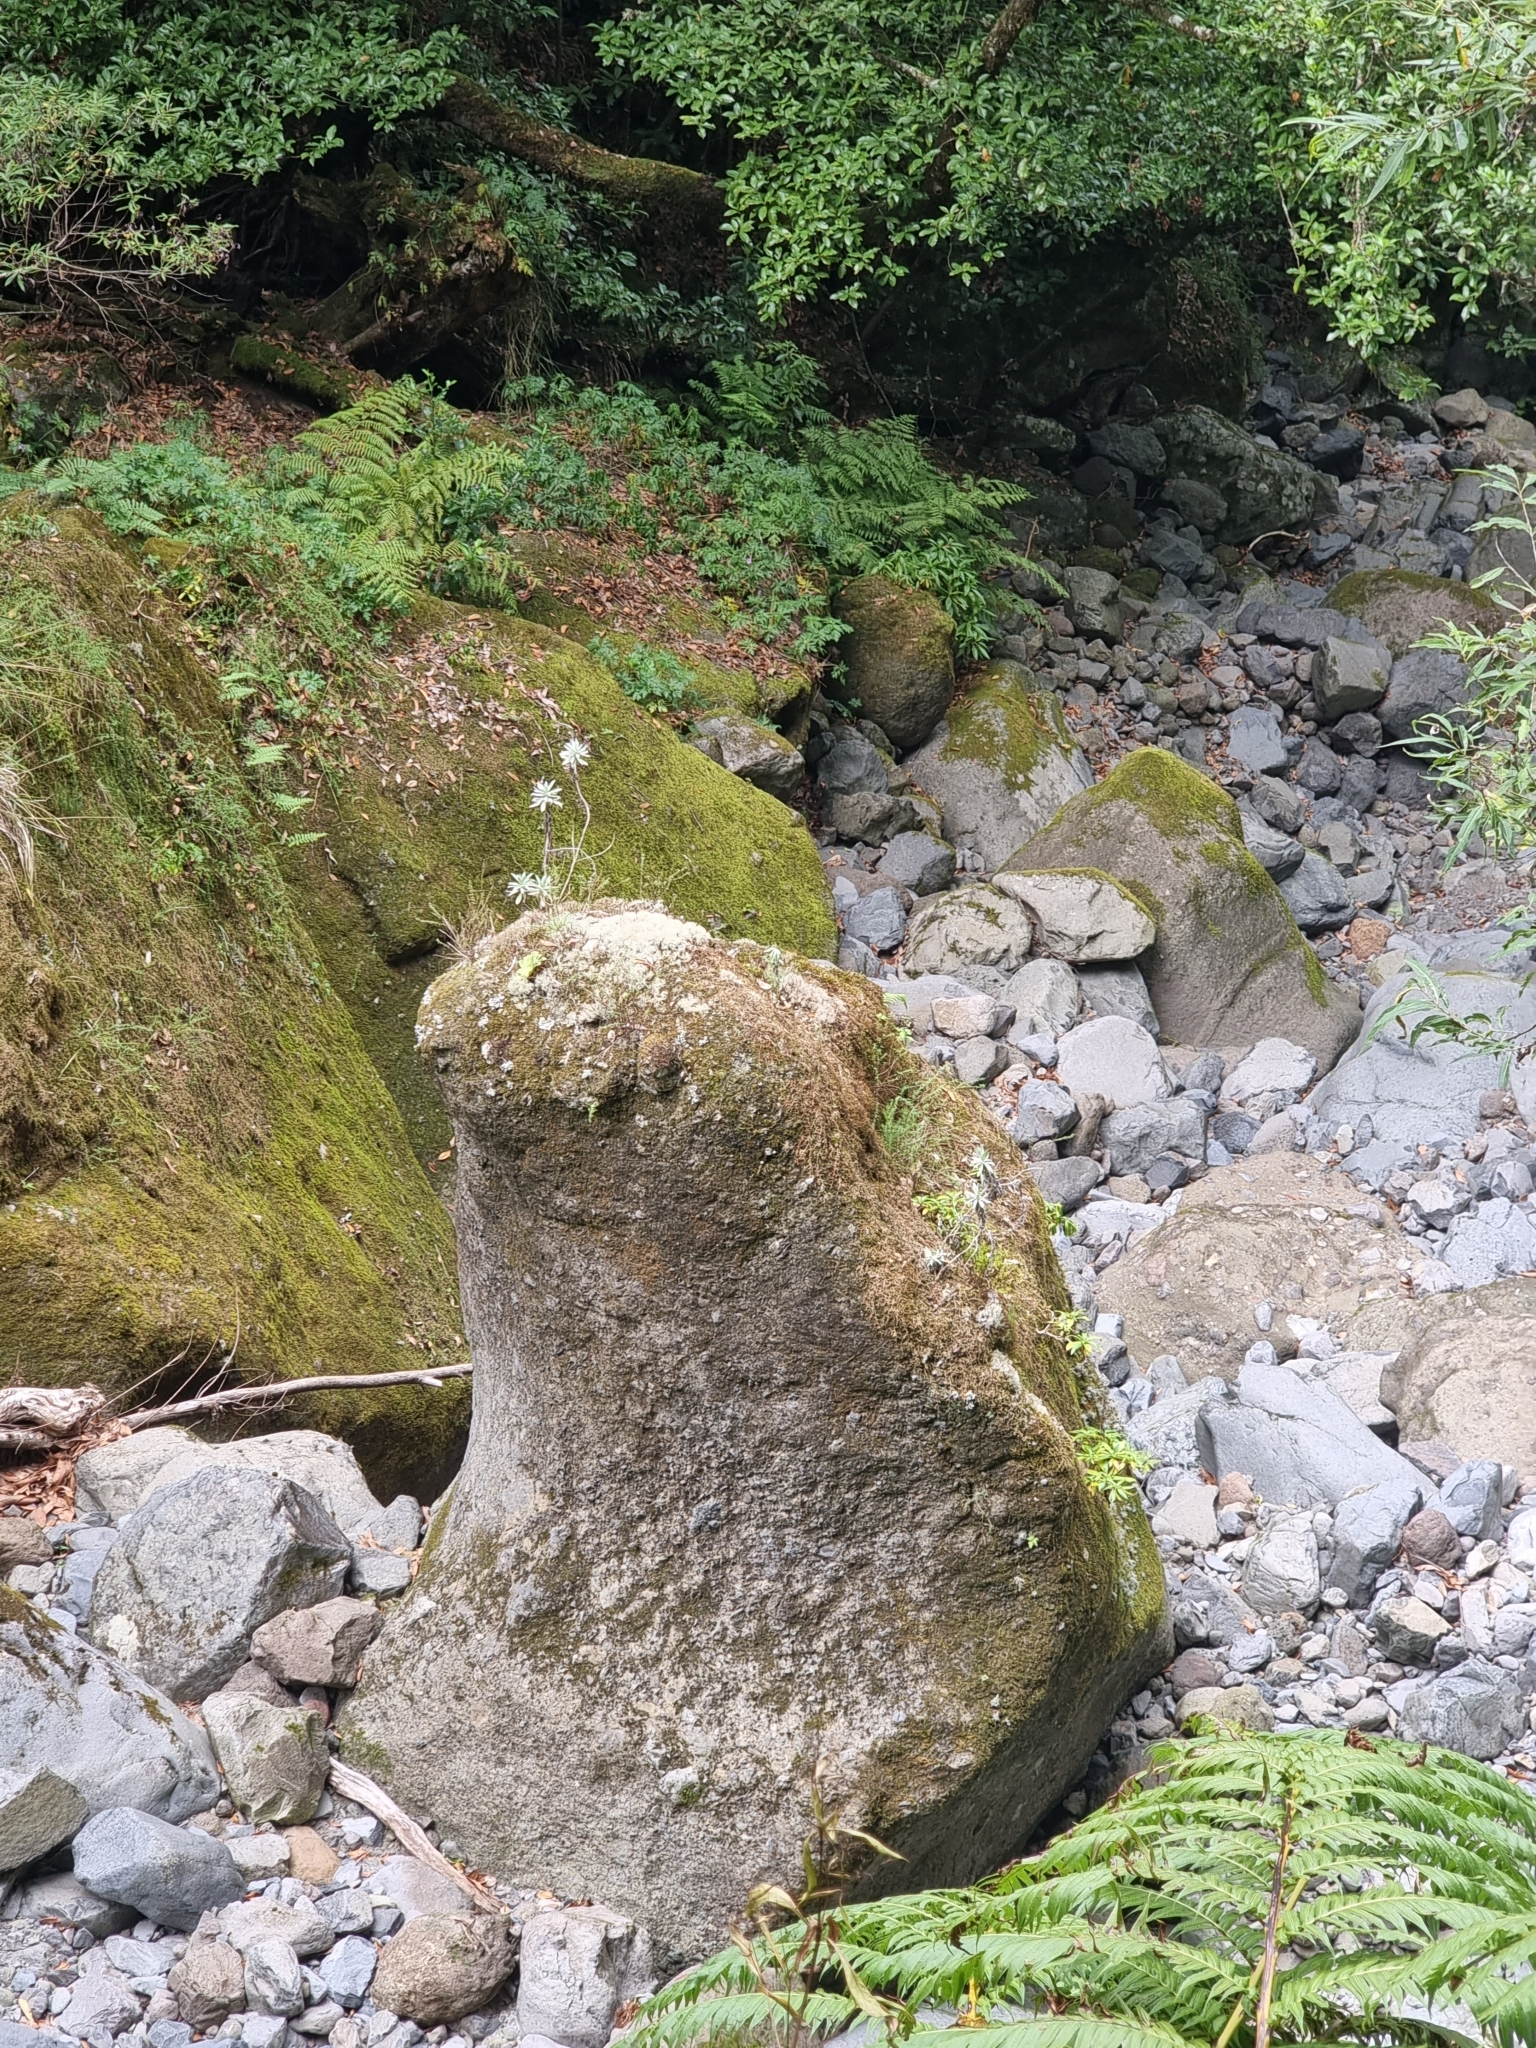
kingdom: Plantae
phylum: Tracheophyta
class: Magnoliopsida
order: Asterales
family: Asteraceae
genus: Helichrysum
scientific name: Helichrysum melaleucum
